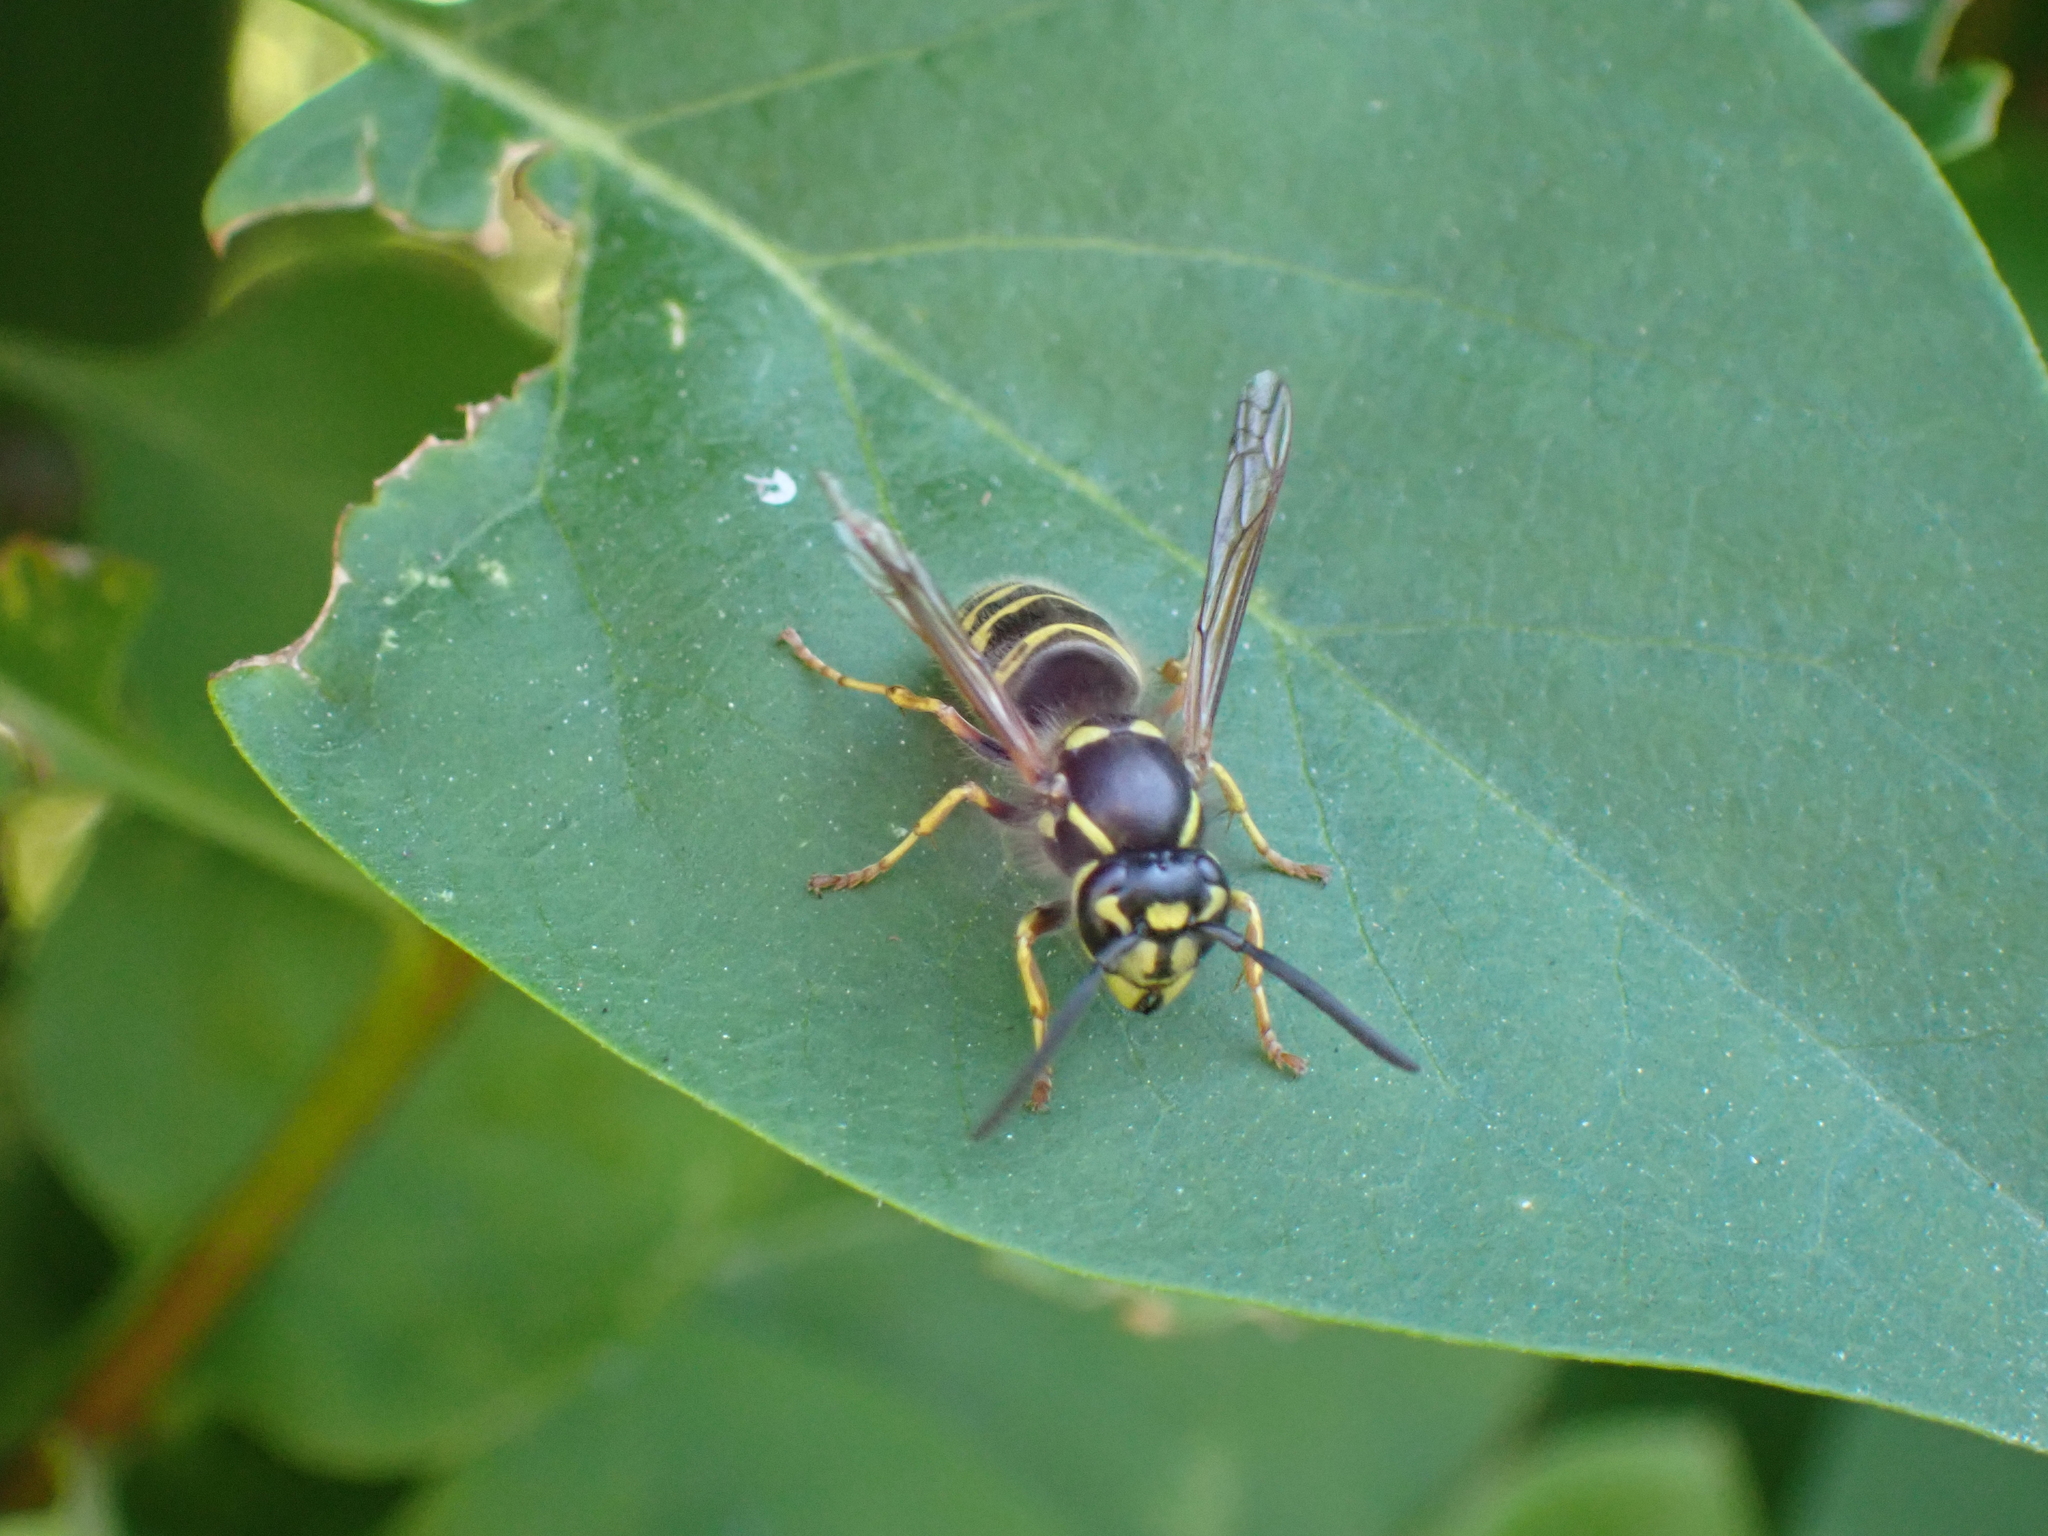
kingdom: Animalia
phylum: Arthropoda
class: Insecta
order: Hymenoptera
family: Vespidae
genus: Vespula
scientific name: Vespula vulgaris
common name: Common wasp
